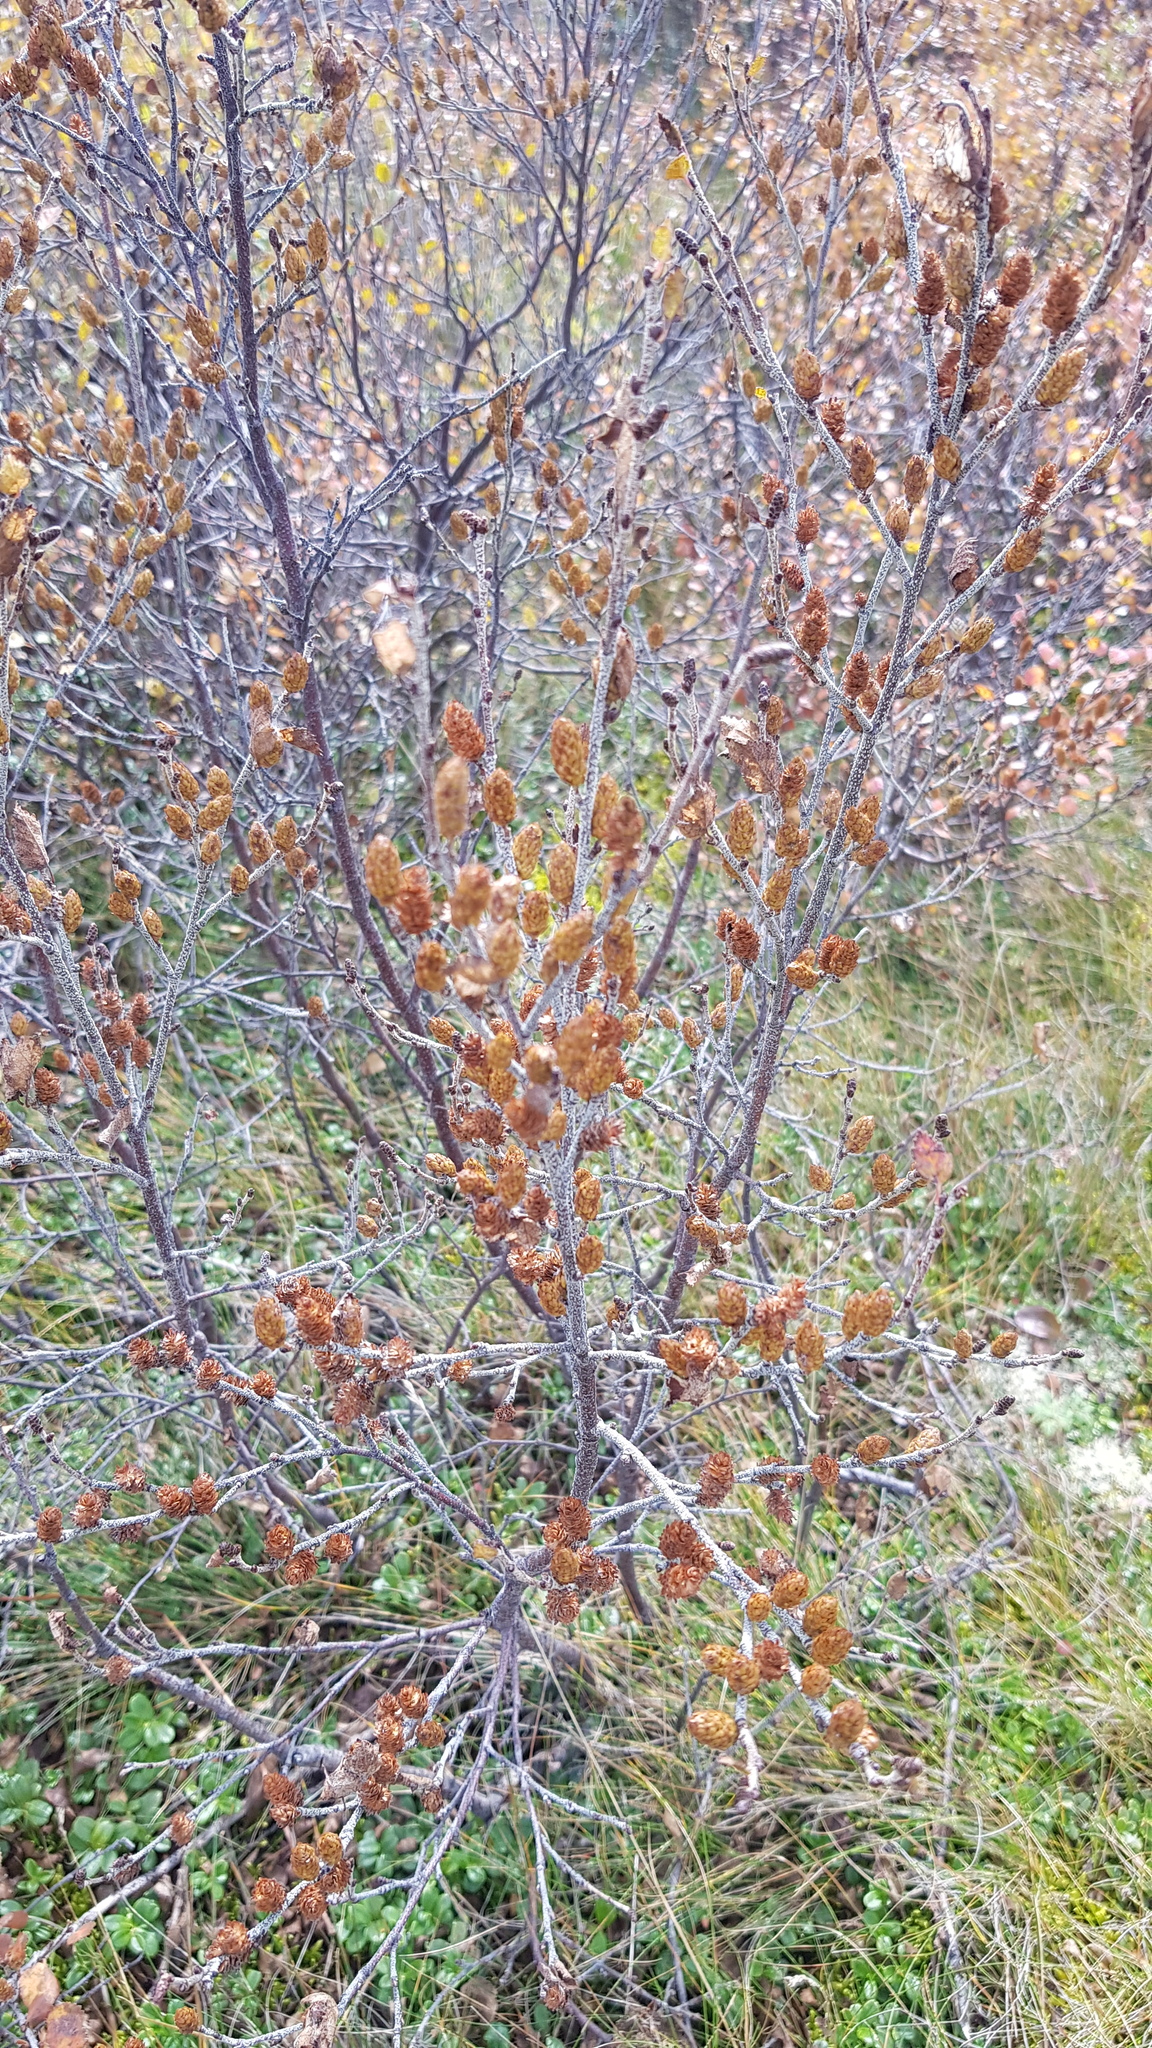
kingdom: Plantae
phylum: Tracheophyta
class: Magnoliopsida
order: Fagales
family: Betulaceae
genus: Betula
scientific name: Betula humilis
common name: Shrubby birch
